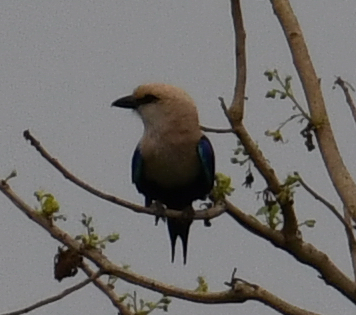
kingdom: Animalia
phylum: Chordata
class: Aves
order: Coraciiformes
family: Coraciidae
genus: Coracias
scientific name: Coracias cyanogaster
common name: Blue-bellied roller
